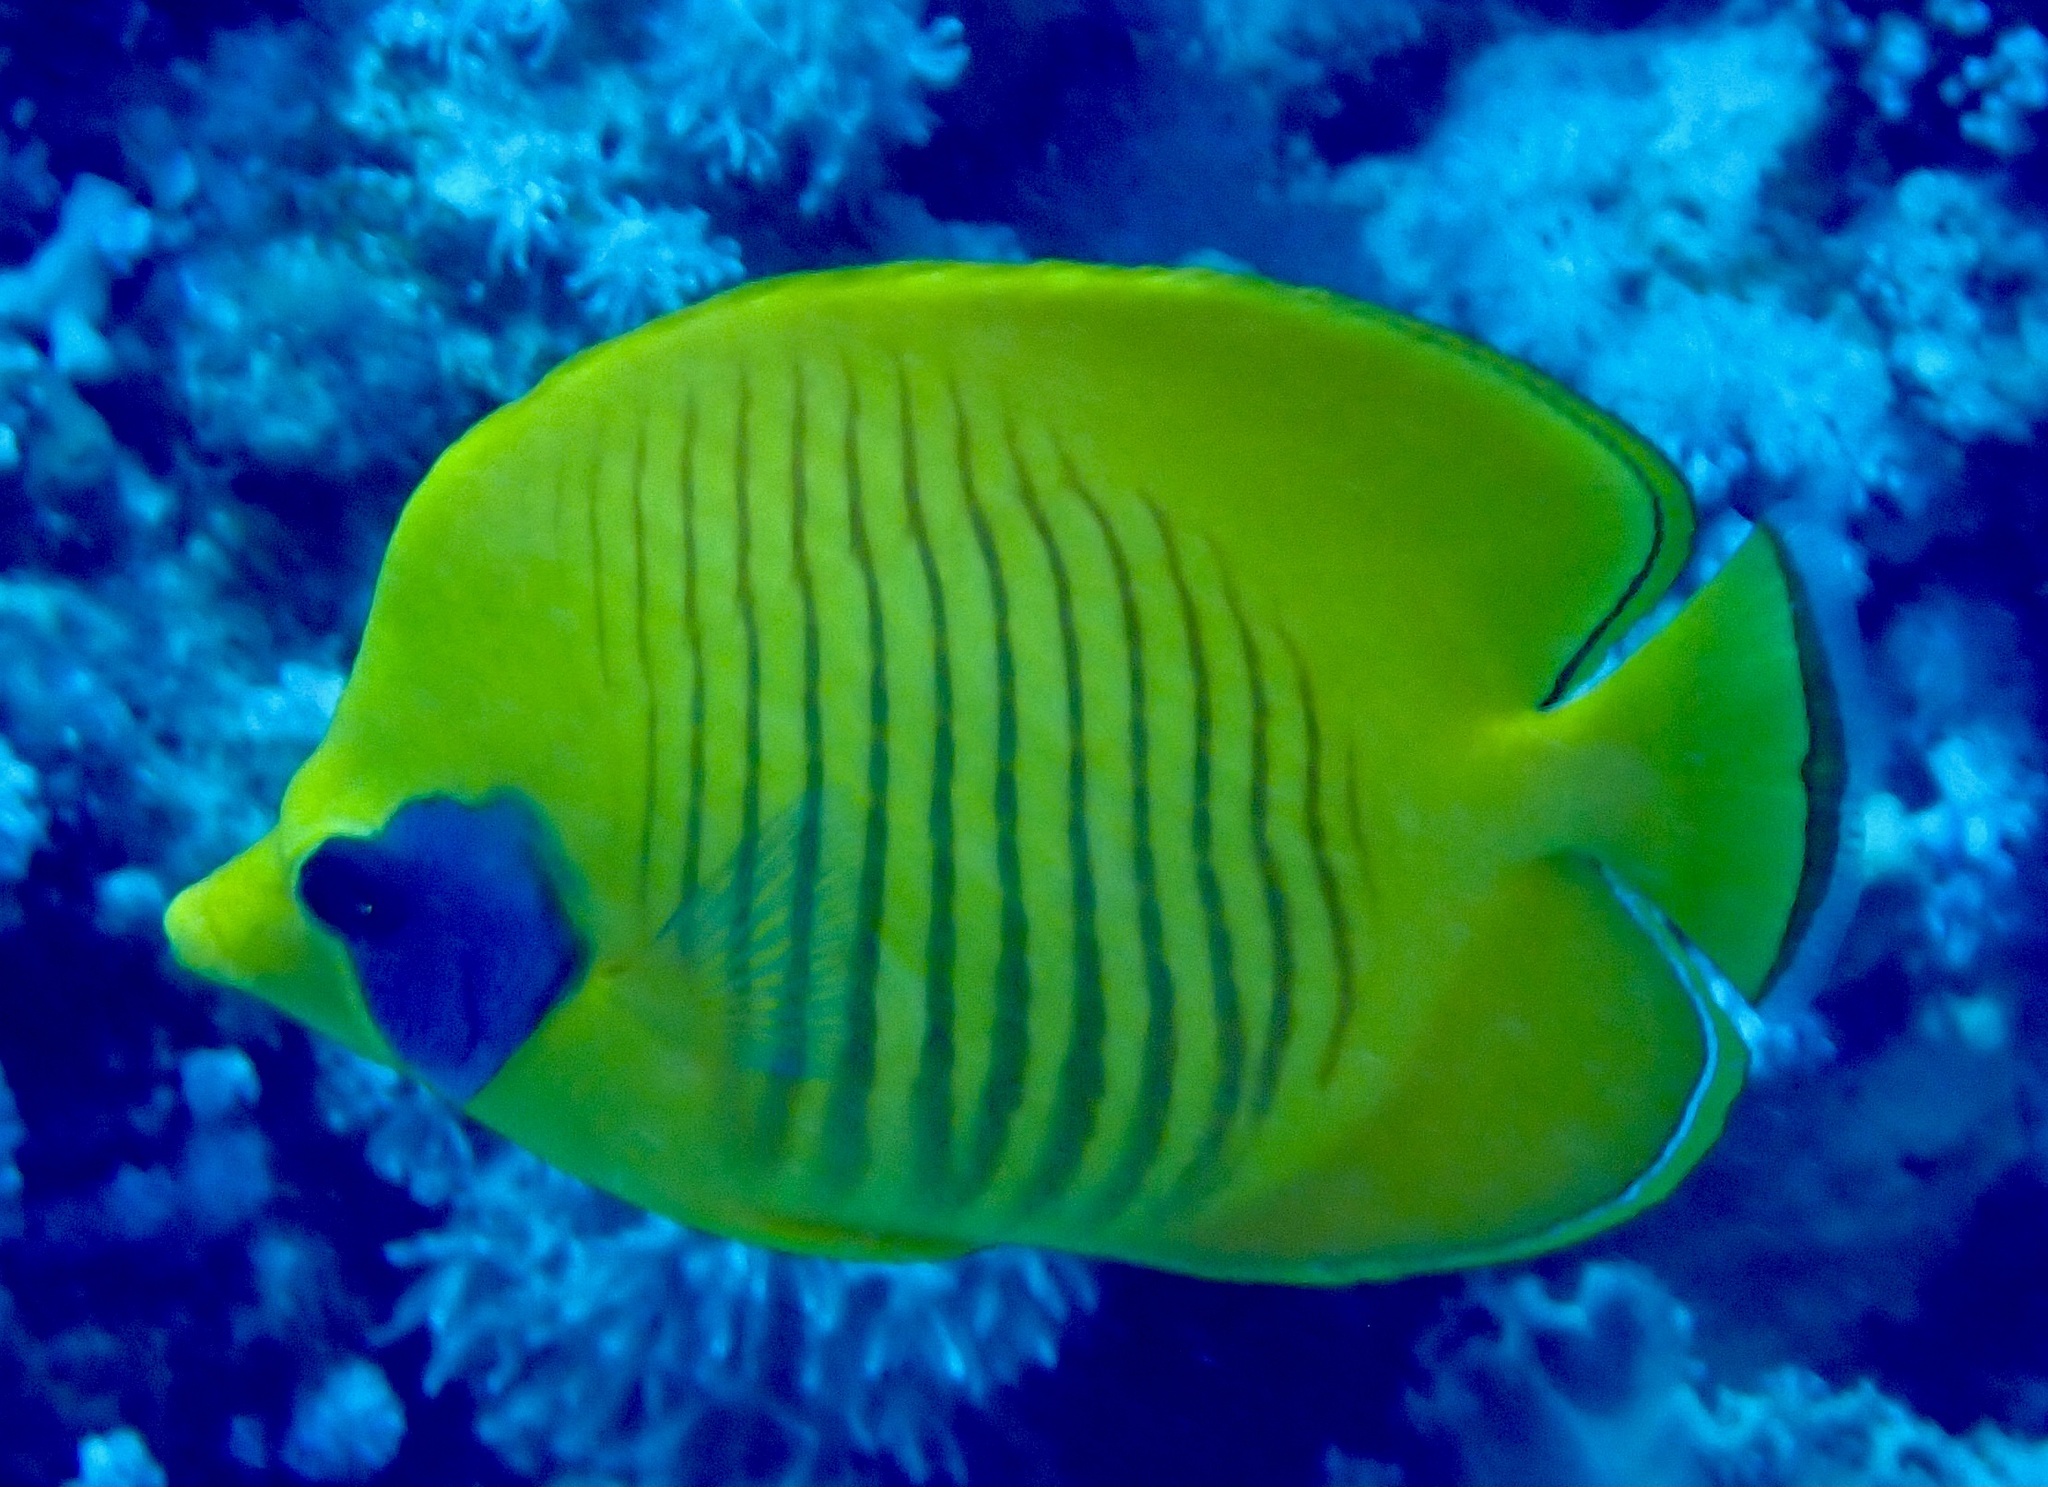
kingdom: Animalia
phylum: Chordata
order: Perciformes
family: Chaetodontidae
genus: Chaetodon
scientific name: Chaetodon semilarvatus
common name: Golden butterflyfish
